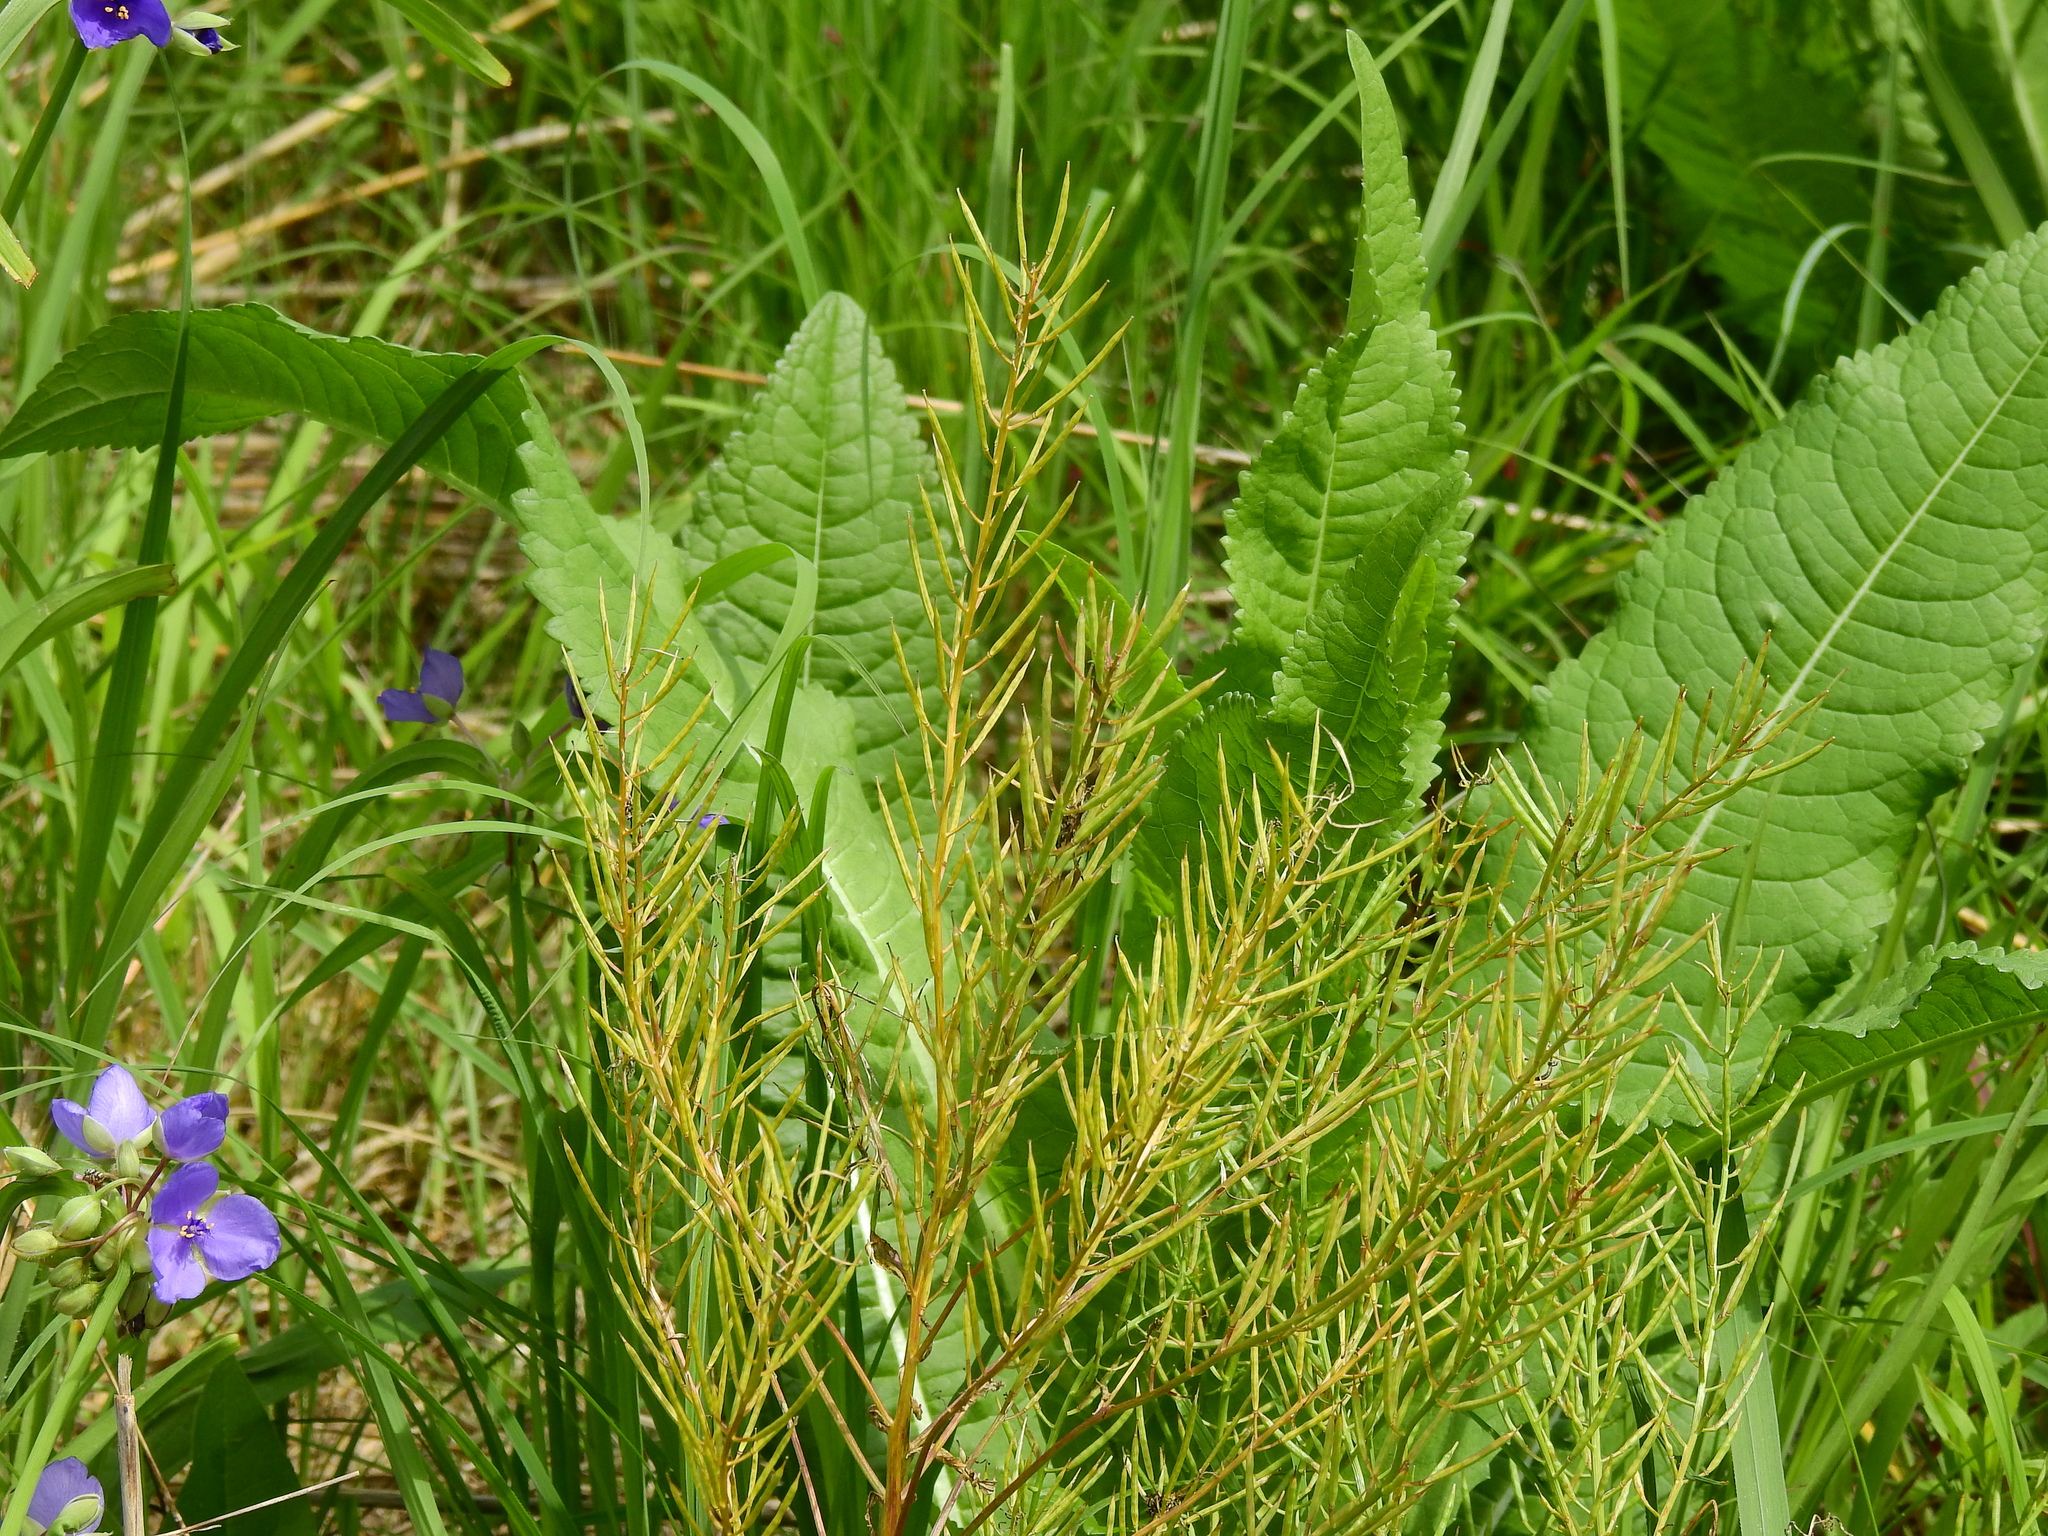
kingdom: Plantae
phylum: Tracheophyta
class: Magnoliopsida
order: Brassicales
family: Brassicaceae
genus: Barbarea
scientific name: Barbarea vulgaris
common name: Cressy-greens
